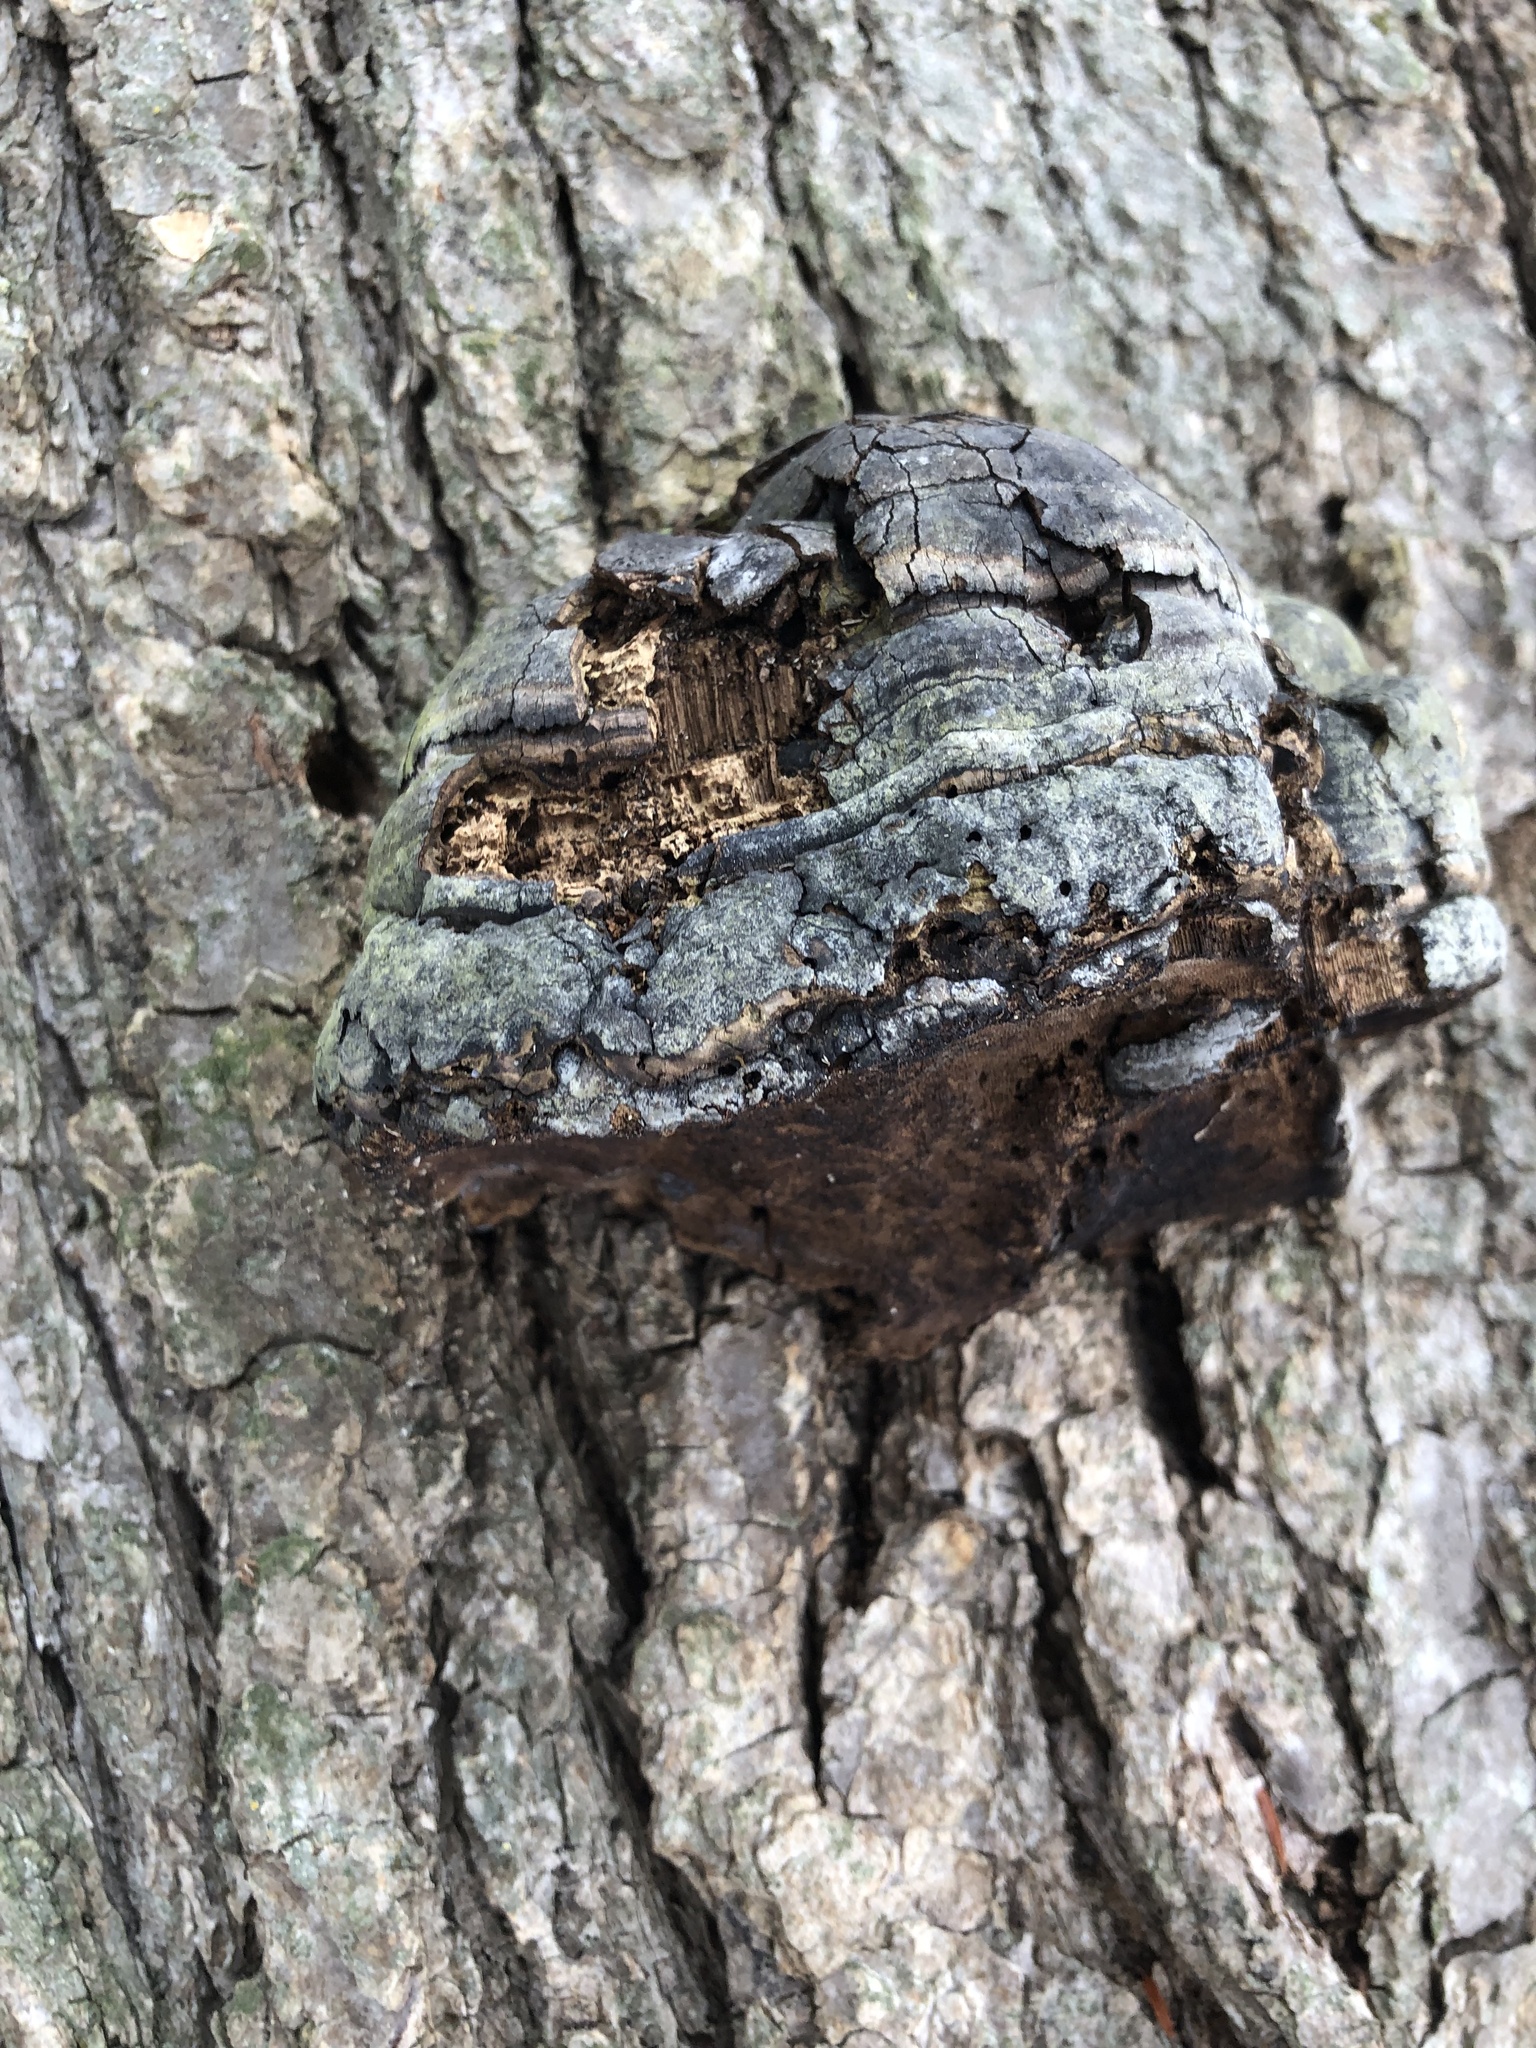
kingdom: Fungi
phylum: Basidiomycota
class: Agaricomycetes
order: Polyporales
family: Polyporaceae
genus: Fomes
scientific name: Fomes fomentarius
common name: Hoof fungus
